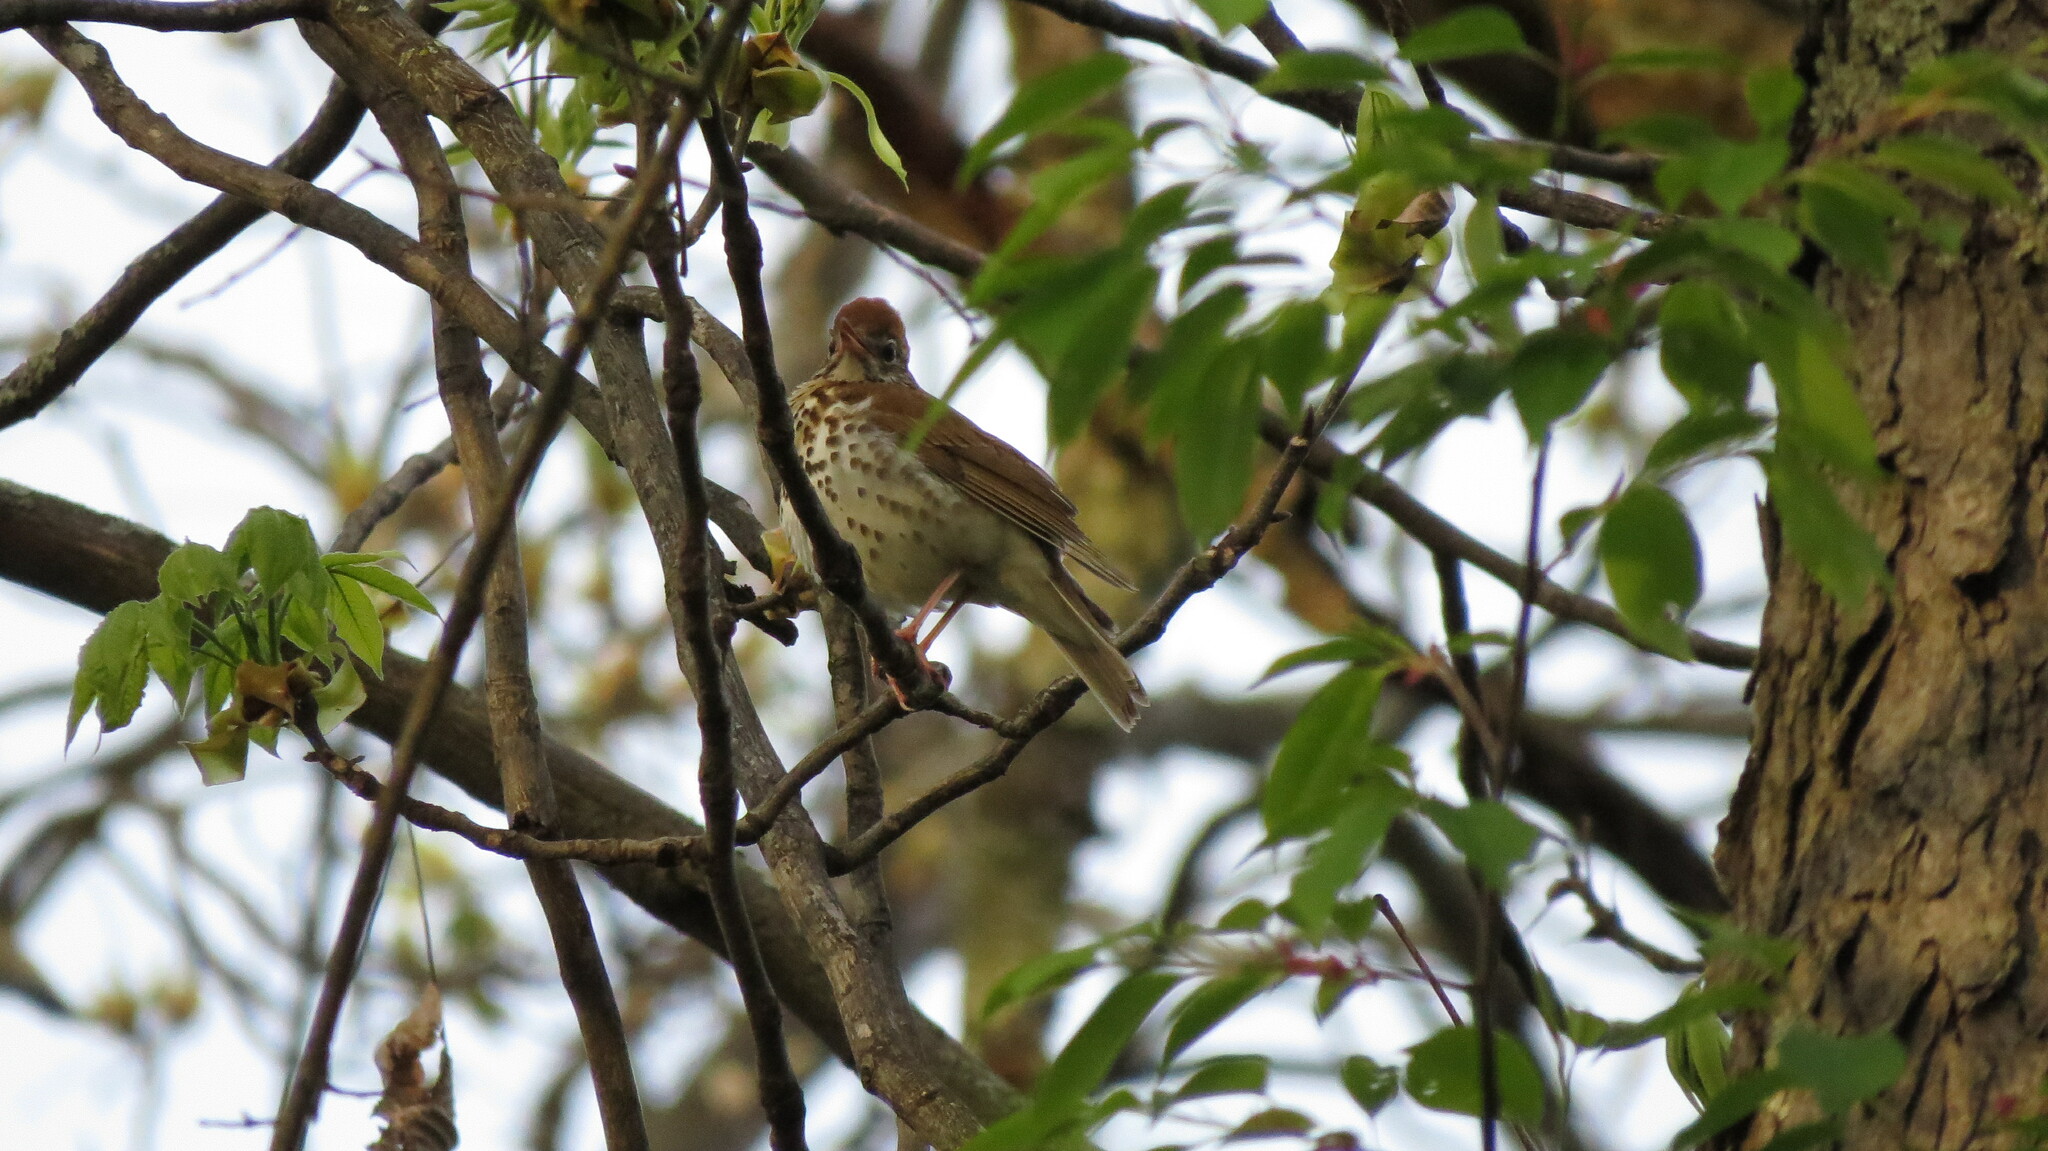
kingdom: Animalia
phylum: Chordata
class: Aves
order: Passeriformes
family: Turdidae
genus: Hylocichla
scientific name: Hylocichla mustelina
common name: Wood thrush
